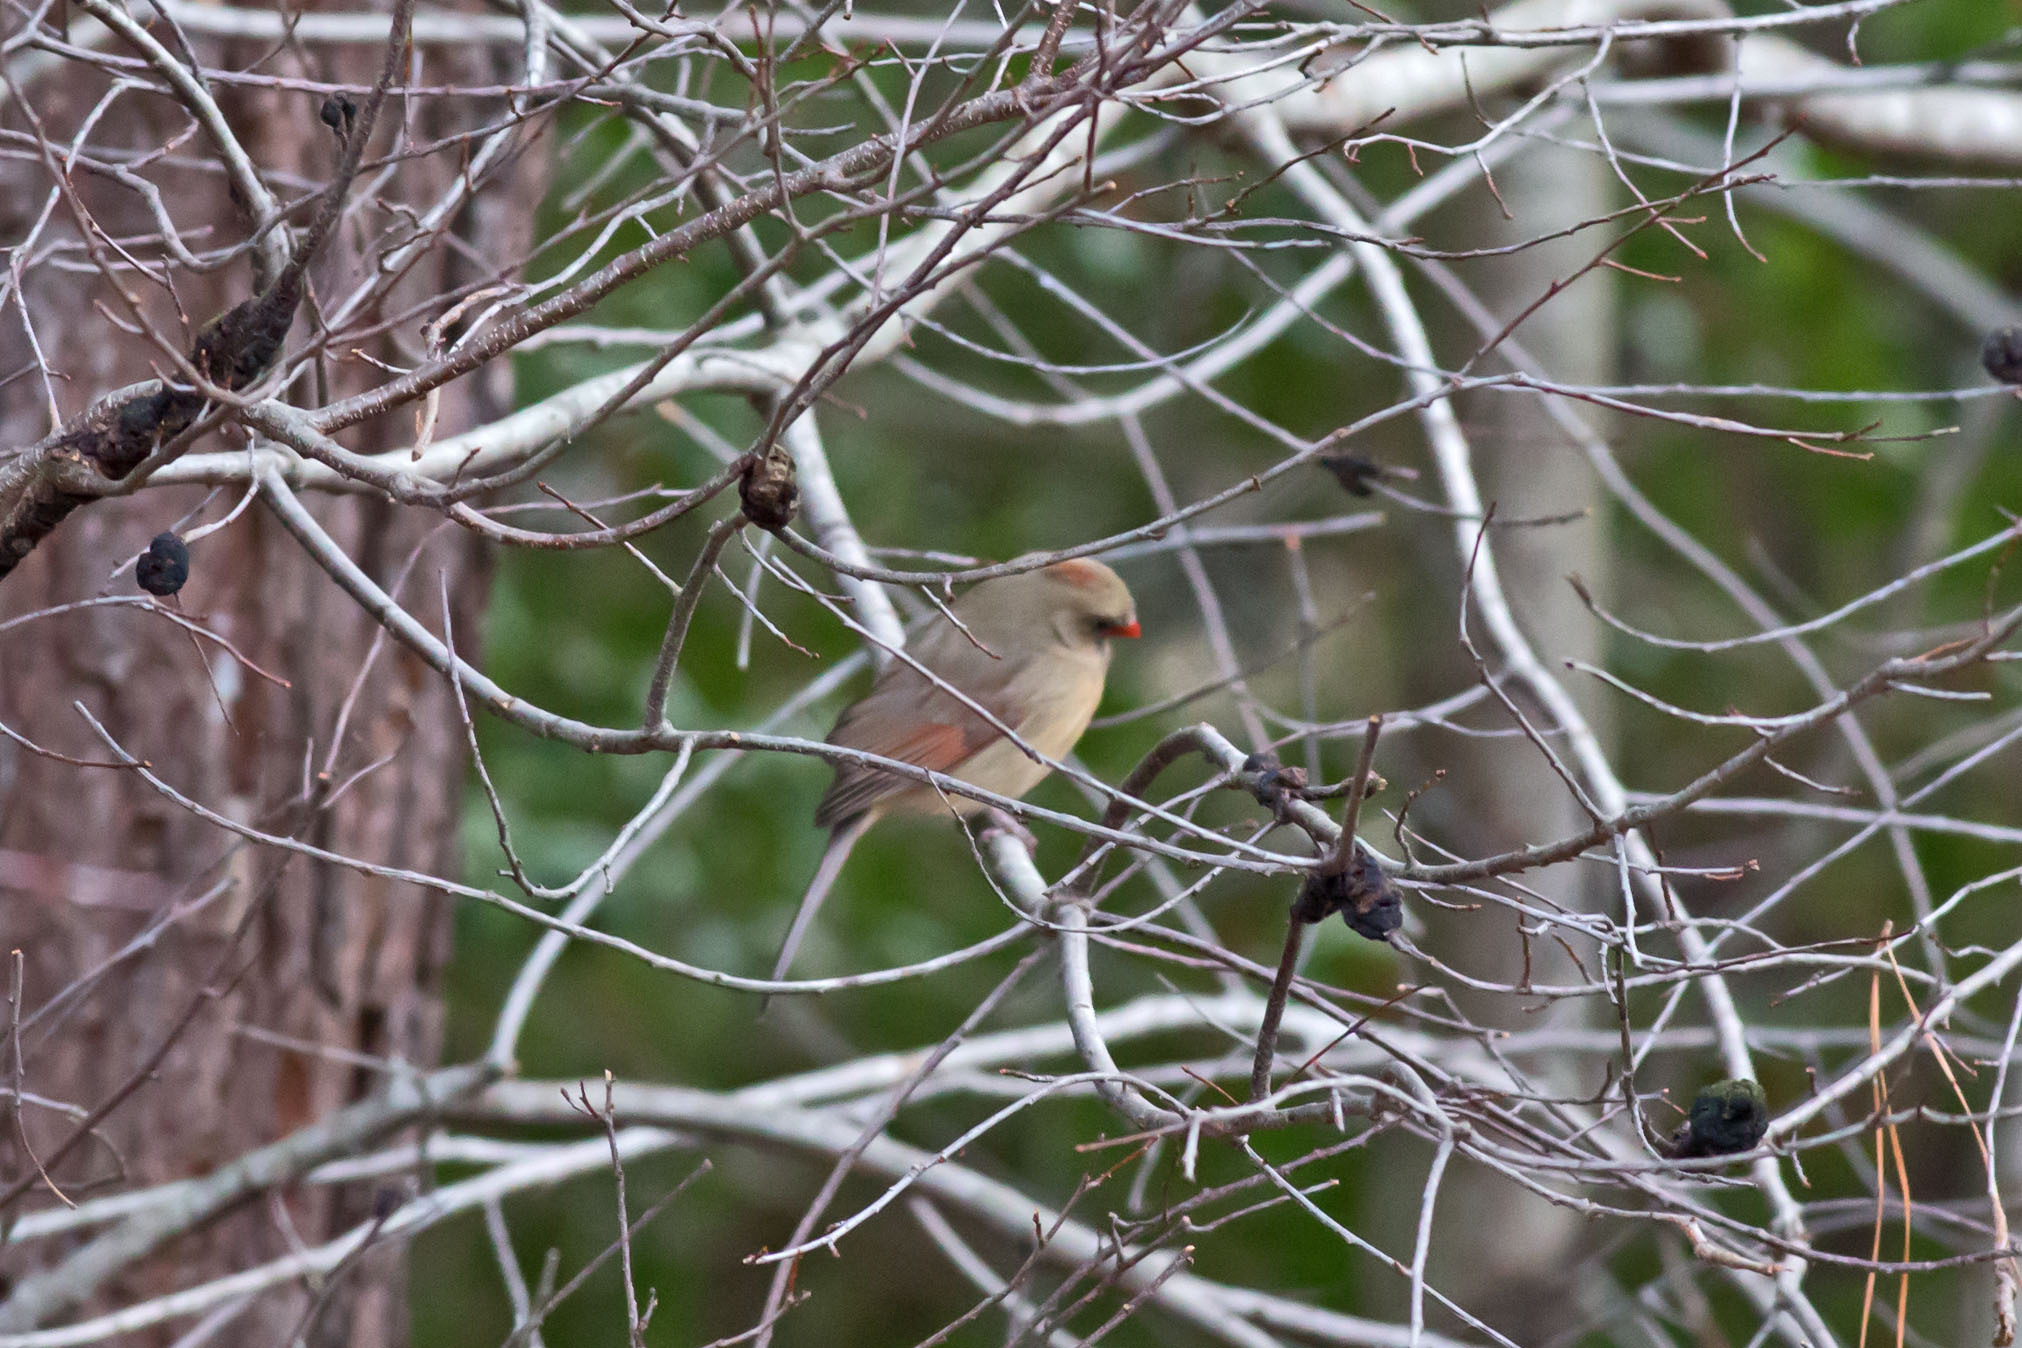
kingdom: Animalia
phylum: Chordata
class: Aves
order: Passeriformes
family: Cardinalidae
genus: Cardinalis
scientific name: Cardinalis cardinalis
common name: Northern cardinal
